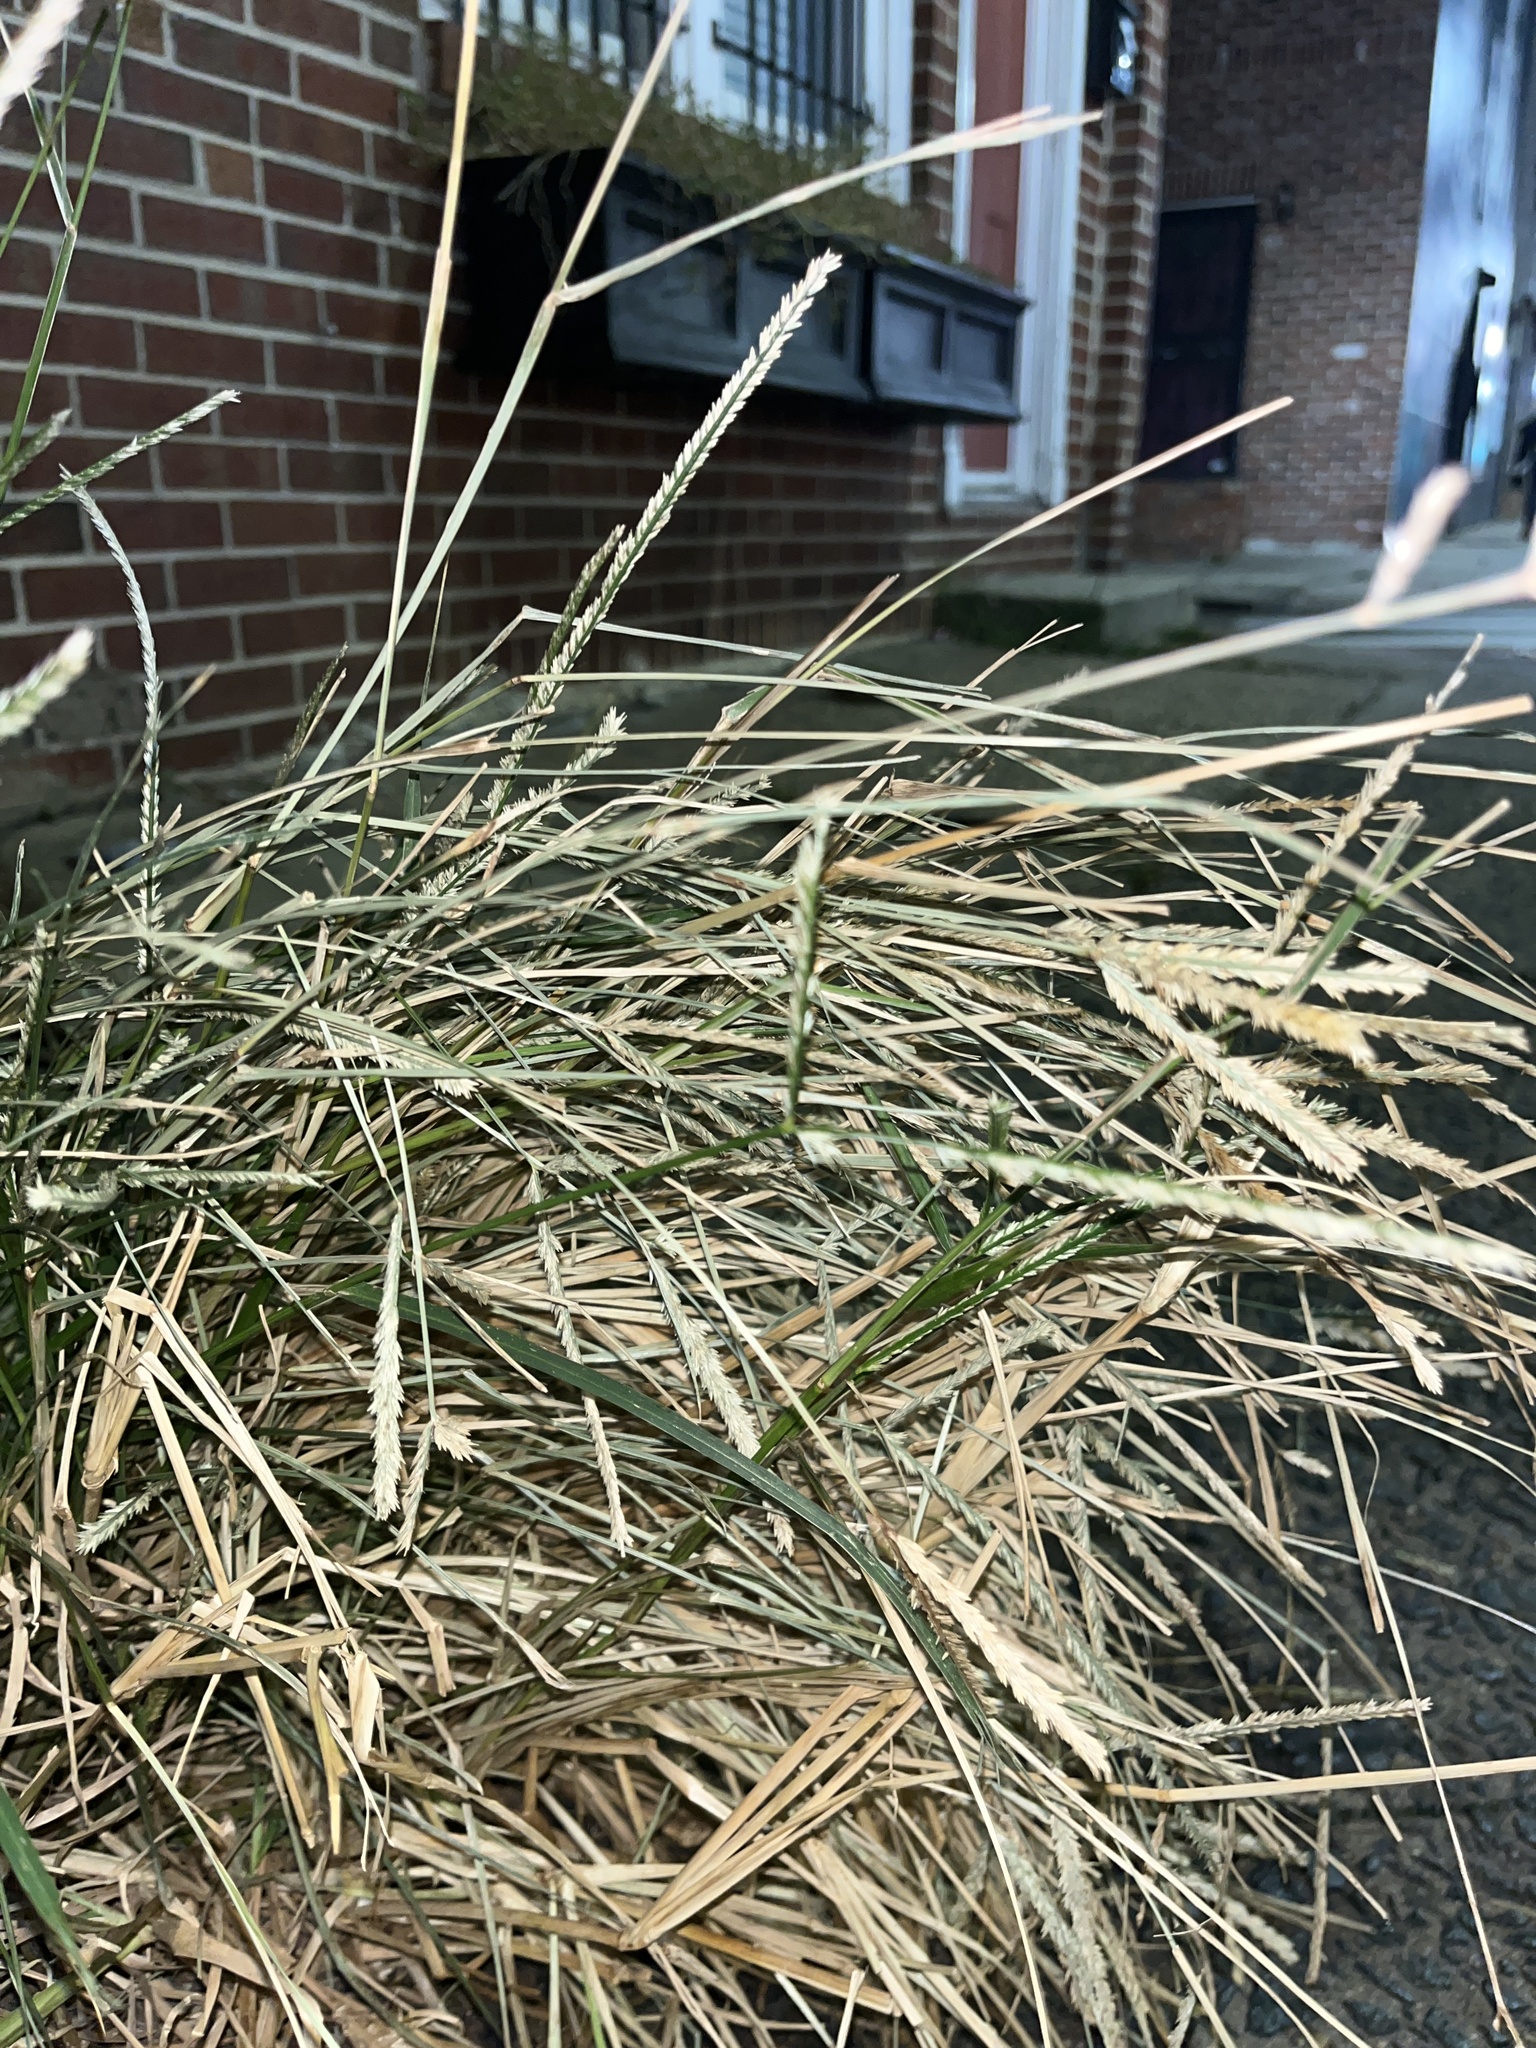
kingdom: Plantae
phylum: Tracheophyta
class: Liliopsida
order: Poales
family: Poaceae
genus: Eleusine
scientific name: Eleusine indica
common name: Yard-grass
